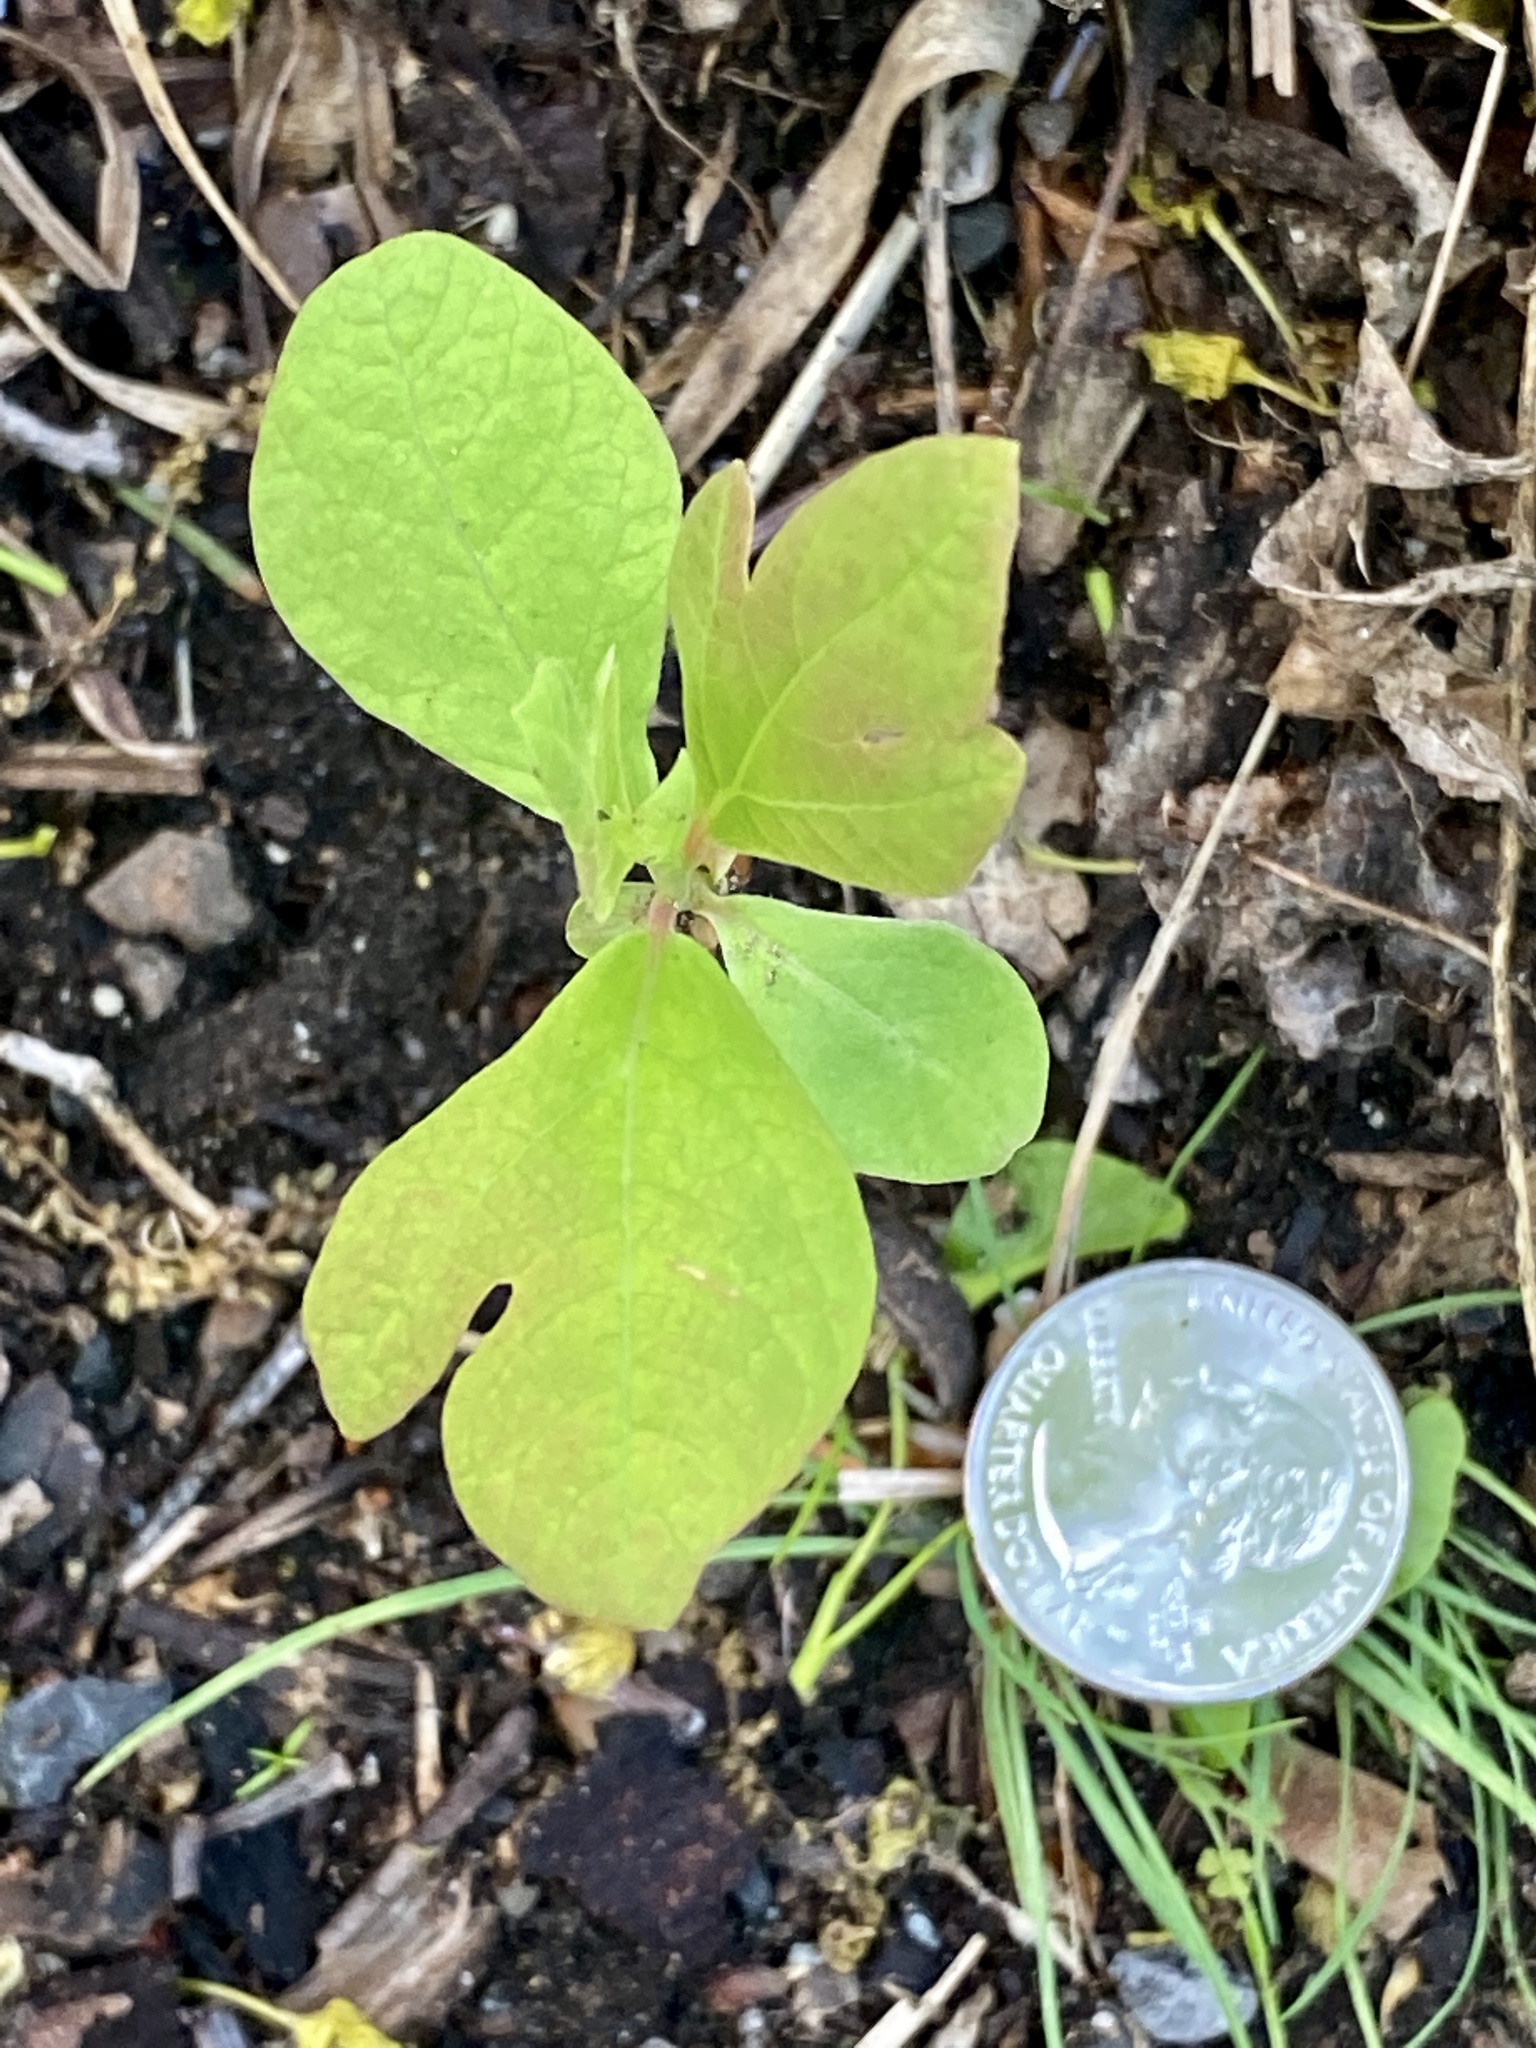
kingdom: Plantae
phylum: Tracheophyta
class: Magnoliopsida
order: Laurales
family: Lauraceae
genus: Sassafras
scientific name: Sassafras albidum
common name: Sassafras
